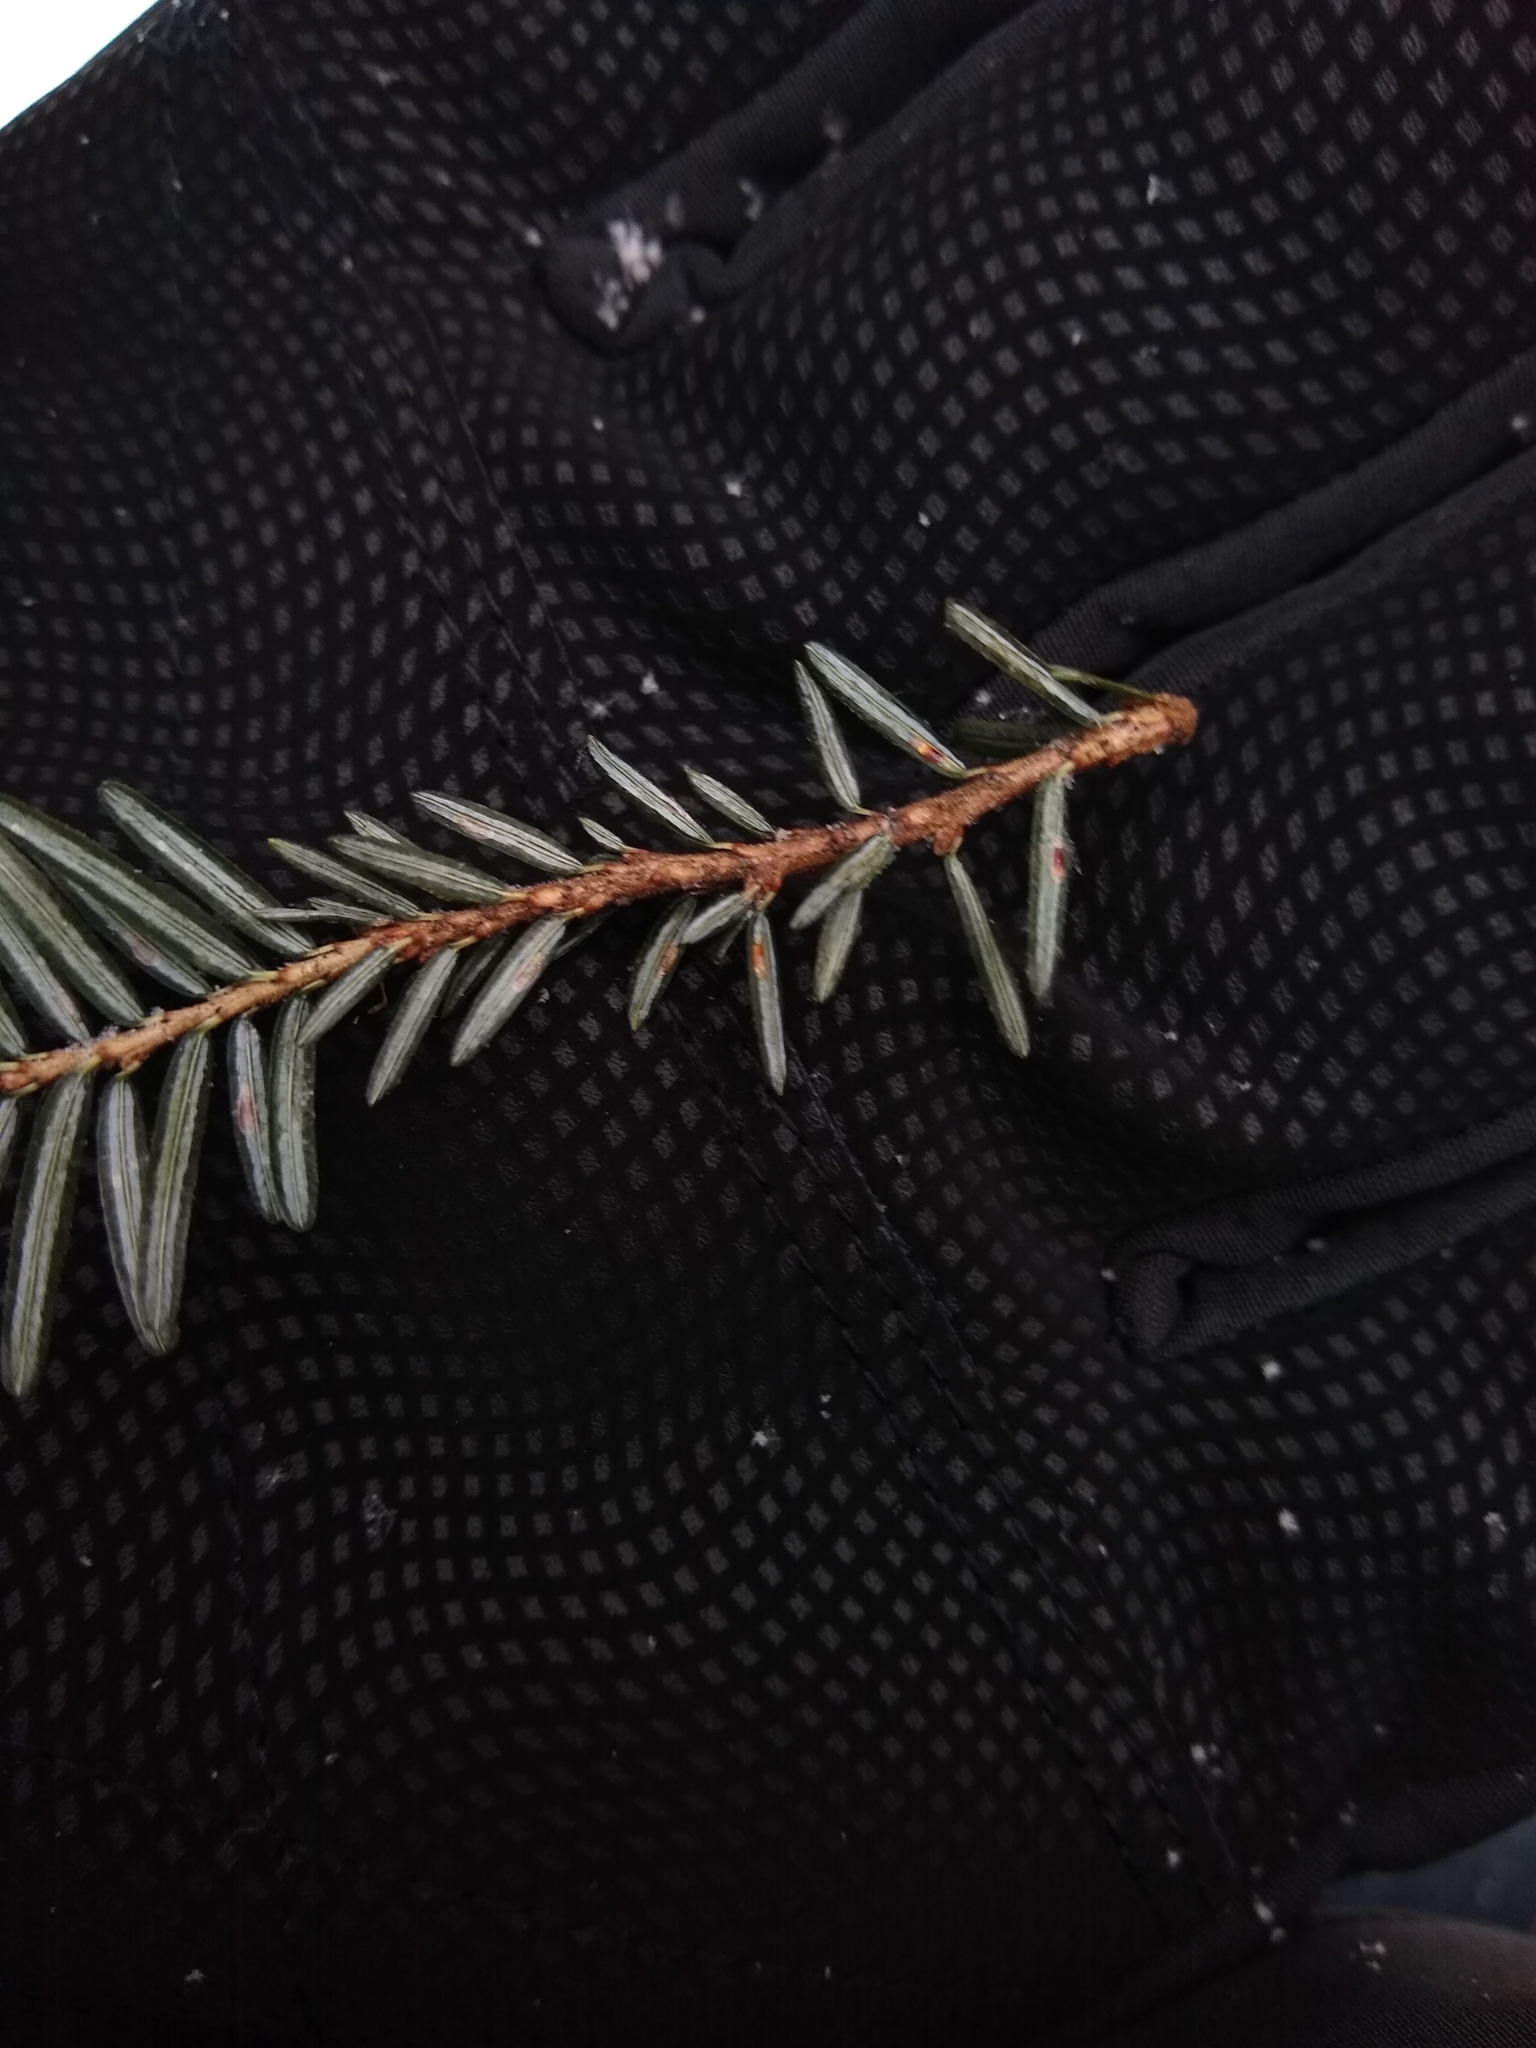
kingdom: Animalia
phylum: Arthropoda
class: Insecta
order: Hemiptera
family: Diaspididae
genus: Fiorinia
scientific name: Fiorinia externa
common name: Elongate hemlock scale
